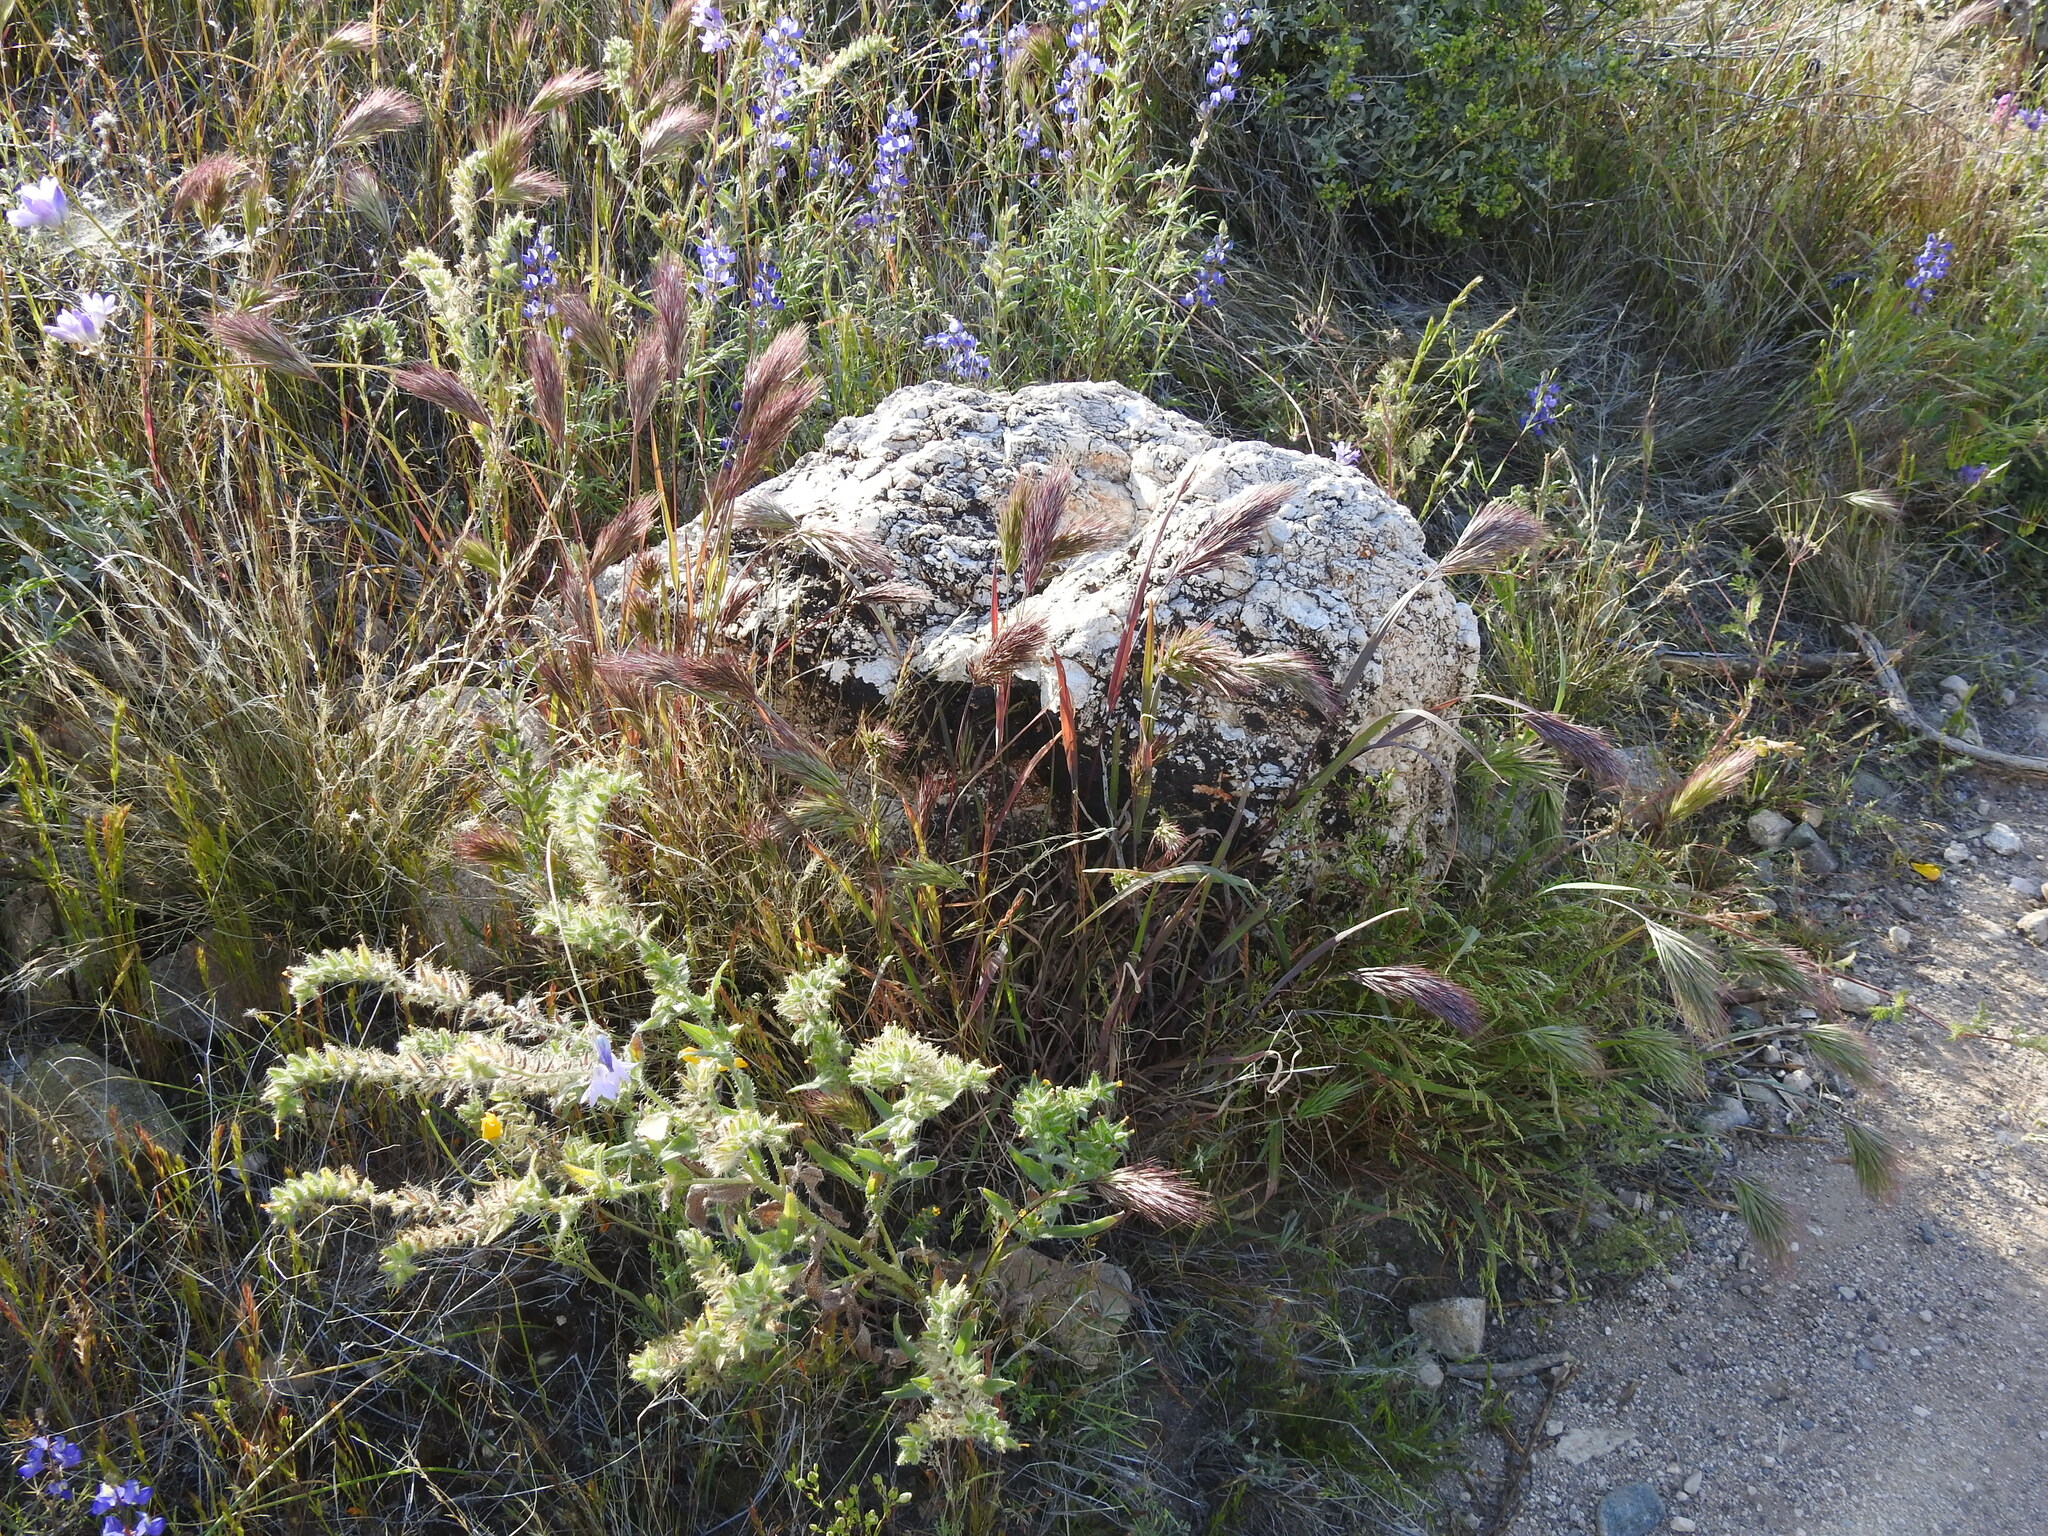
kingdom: Plantae
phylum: Tracheophyta
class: Liliopsida
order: Poales
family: Poaceae
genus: Bromus
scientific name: Bromus rubens
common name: Red brome
